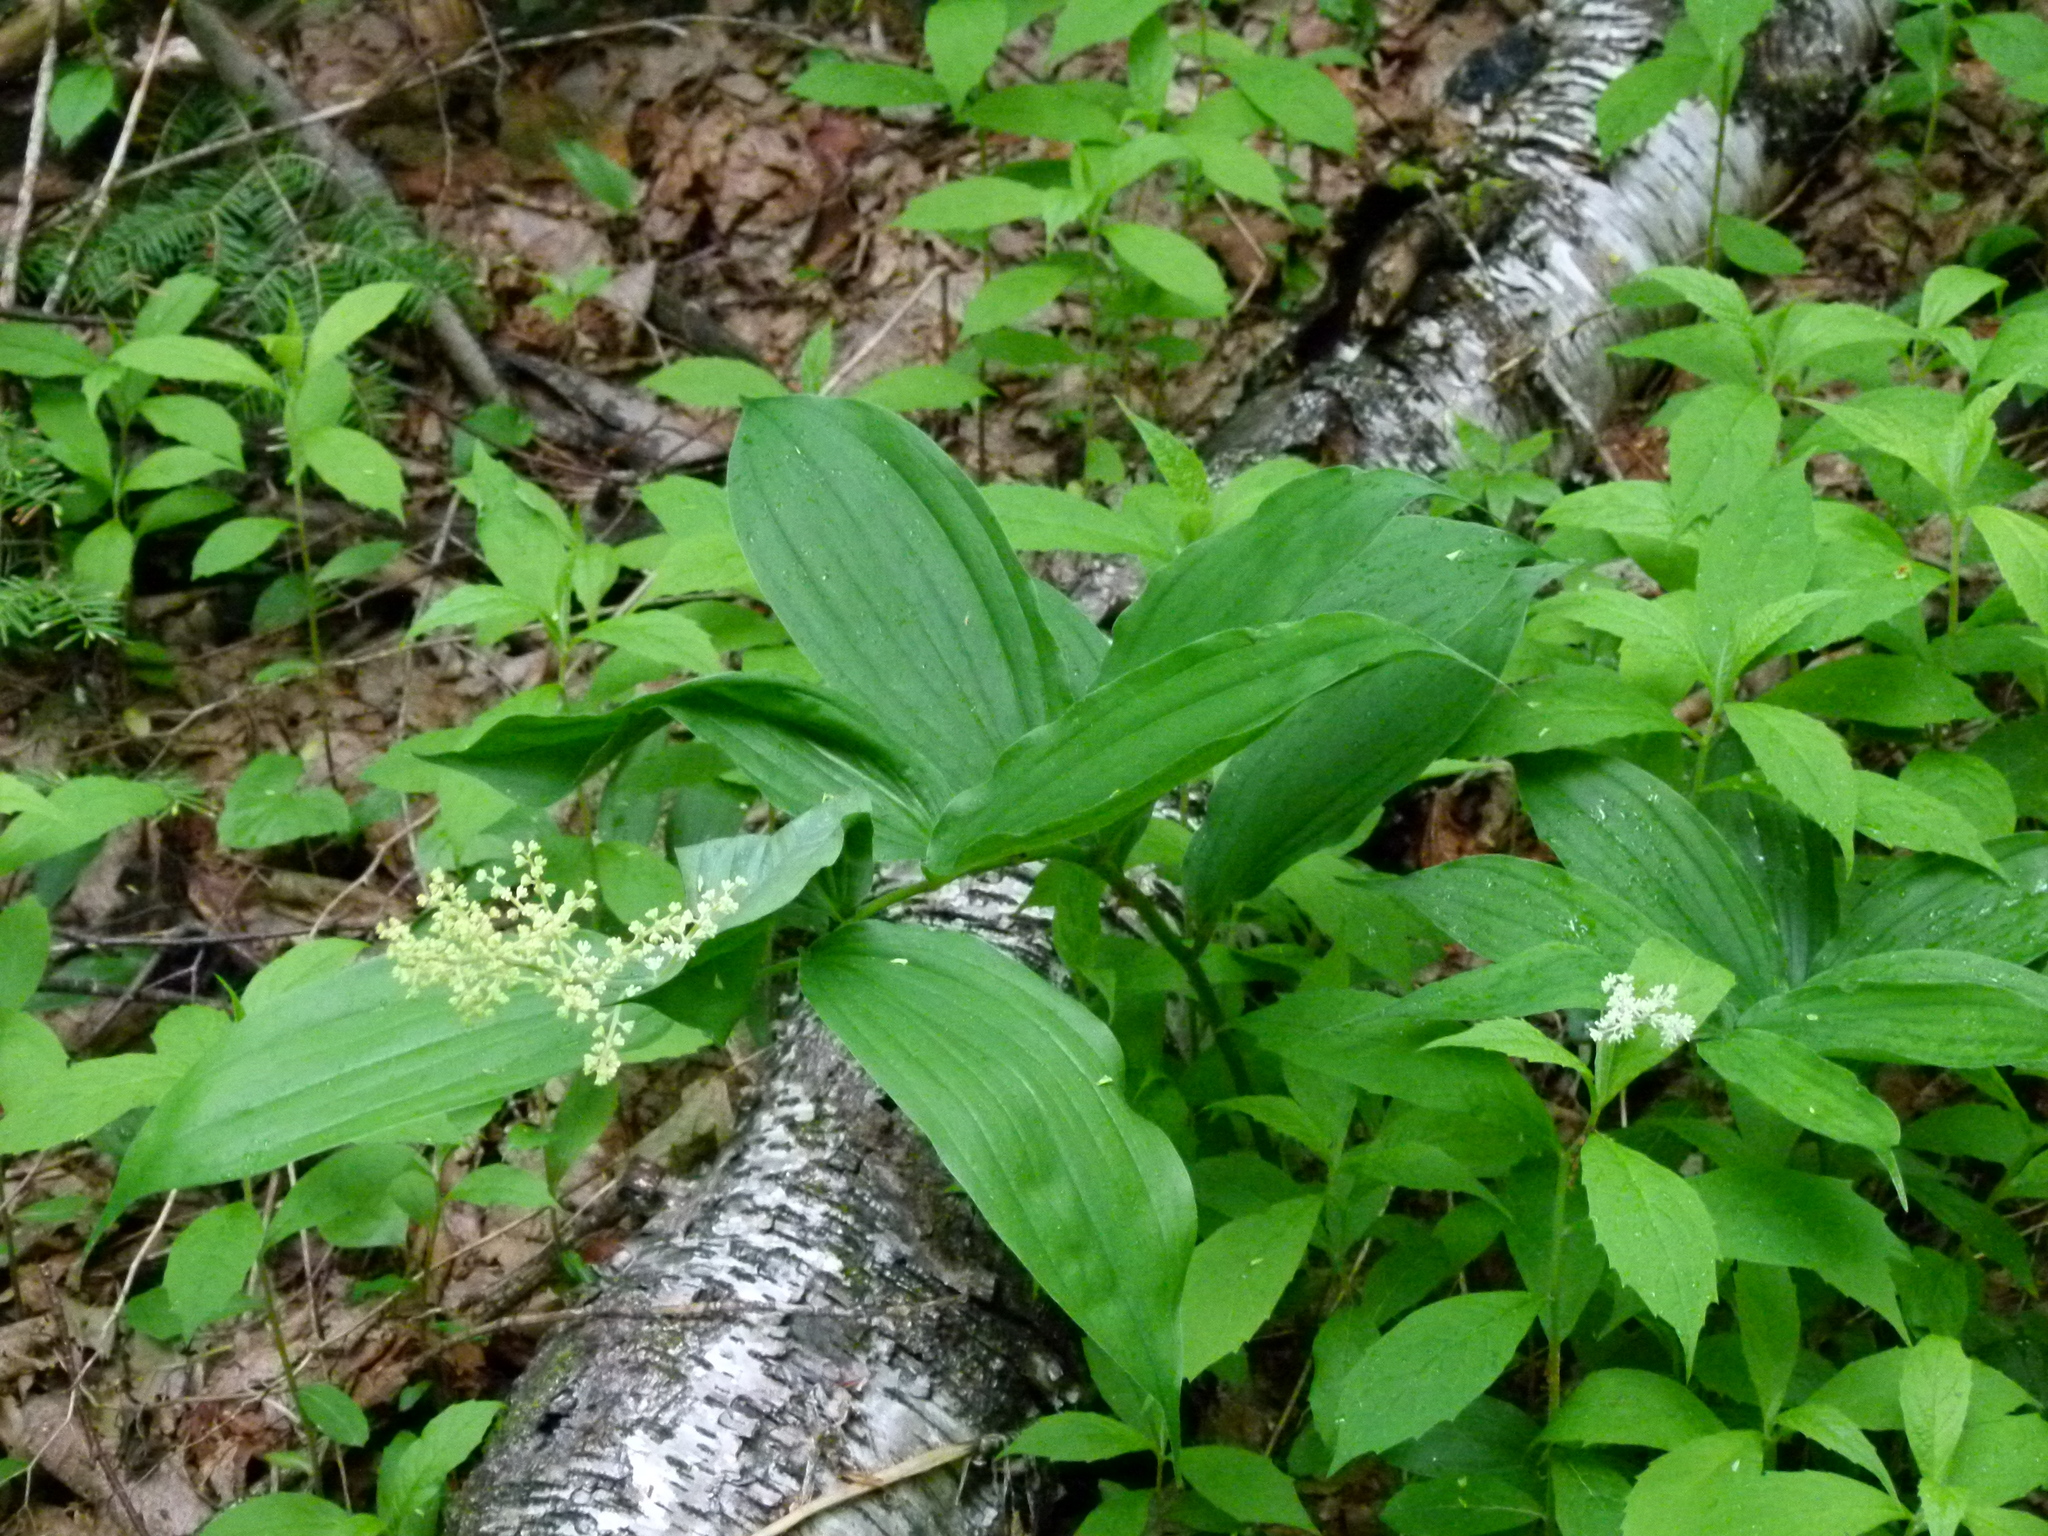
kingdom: Plantae
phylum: Tracheophyta
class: Liliopsida
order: Asparagales
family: Asparagaceae
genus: Maianthemum
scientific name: Maianthemum racemosum
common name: False spikenard
